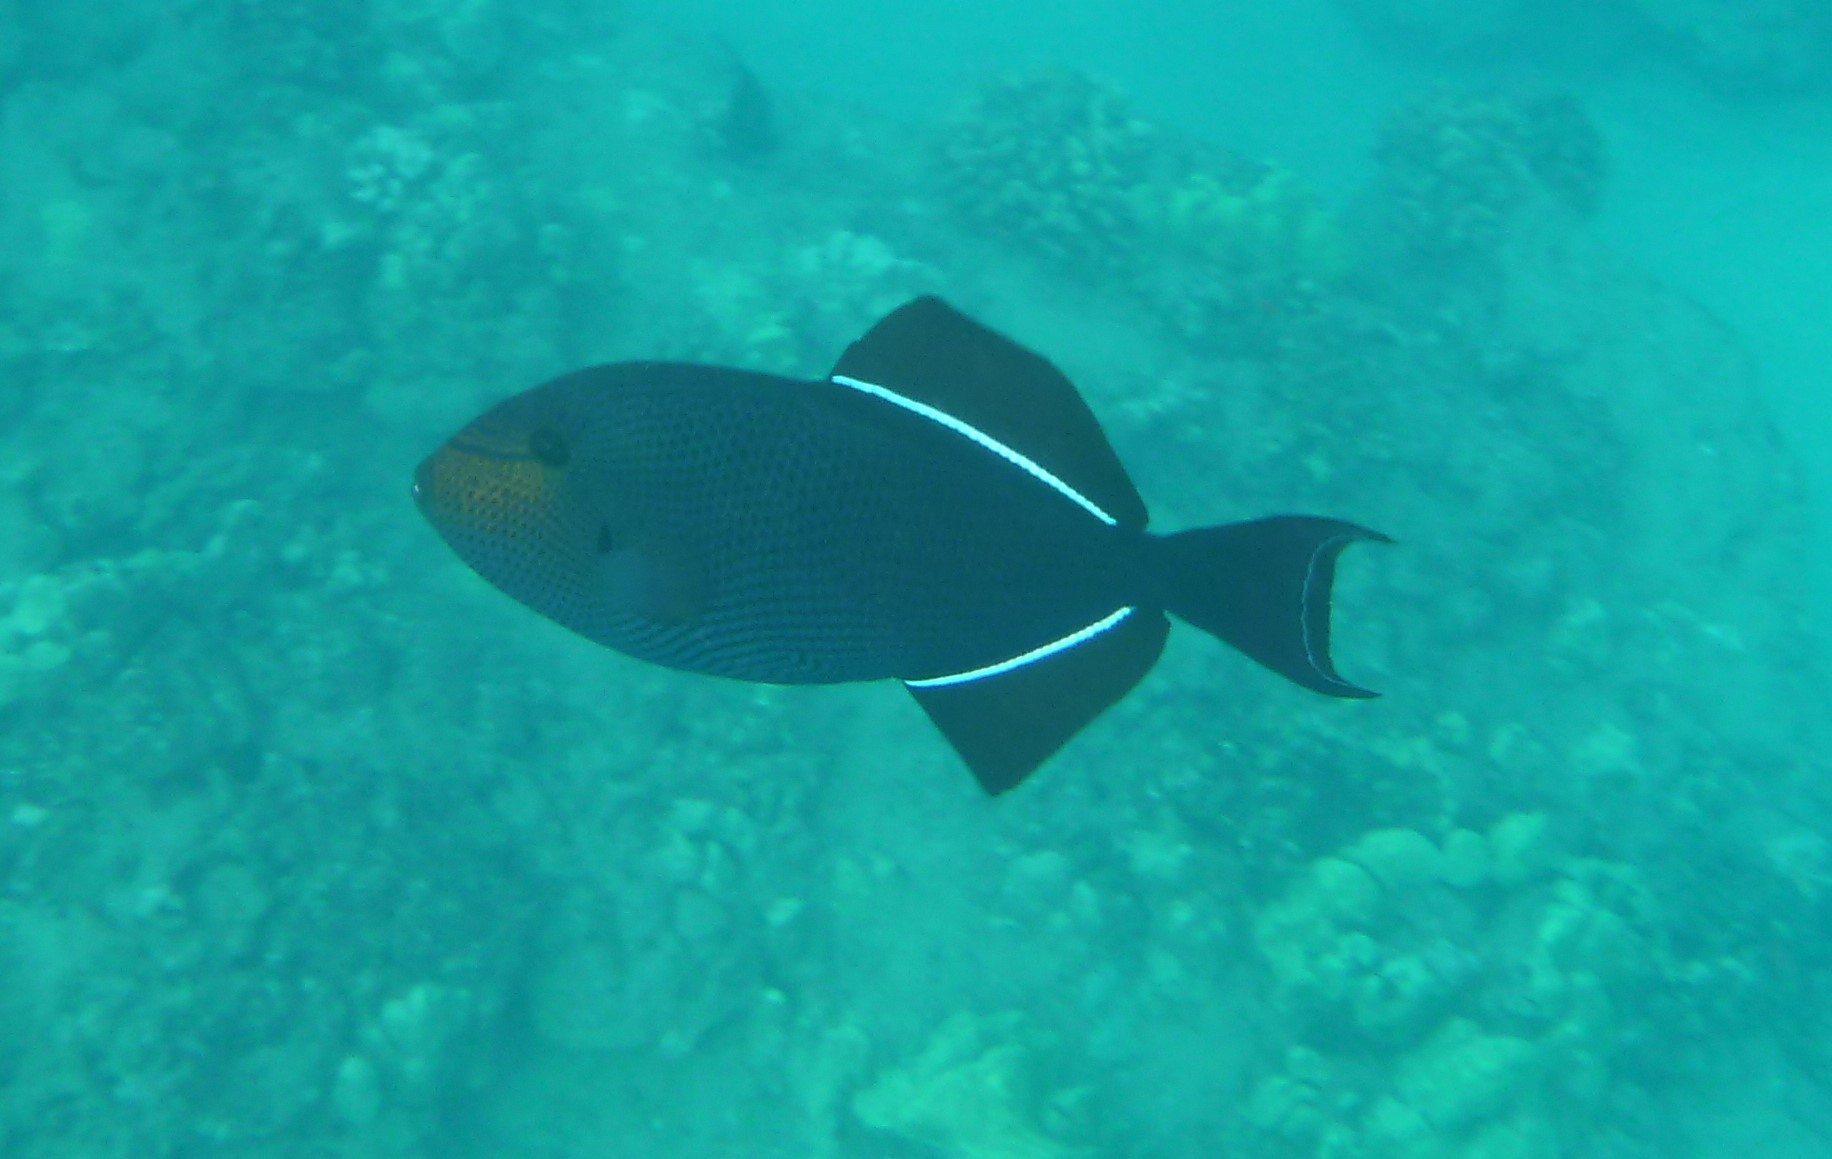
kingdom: Animalia
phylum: Chordata
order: Tetraodontiformes
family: Balistidae
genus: Melichthys
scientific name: Melichthys niger
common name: Black durgon
